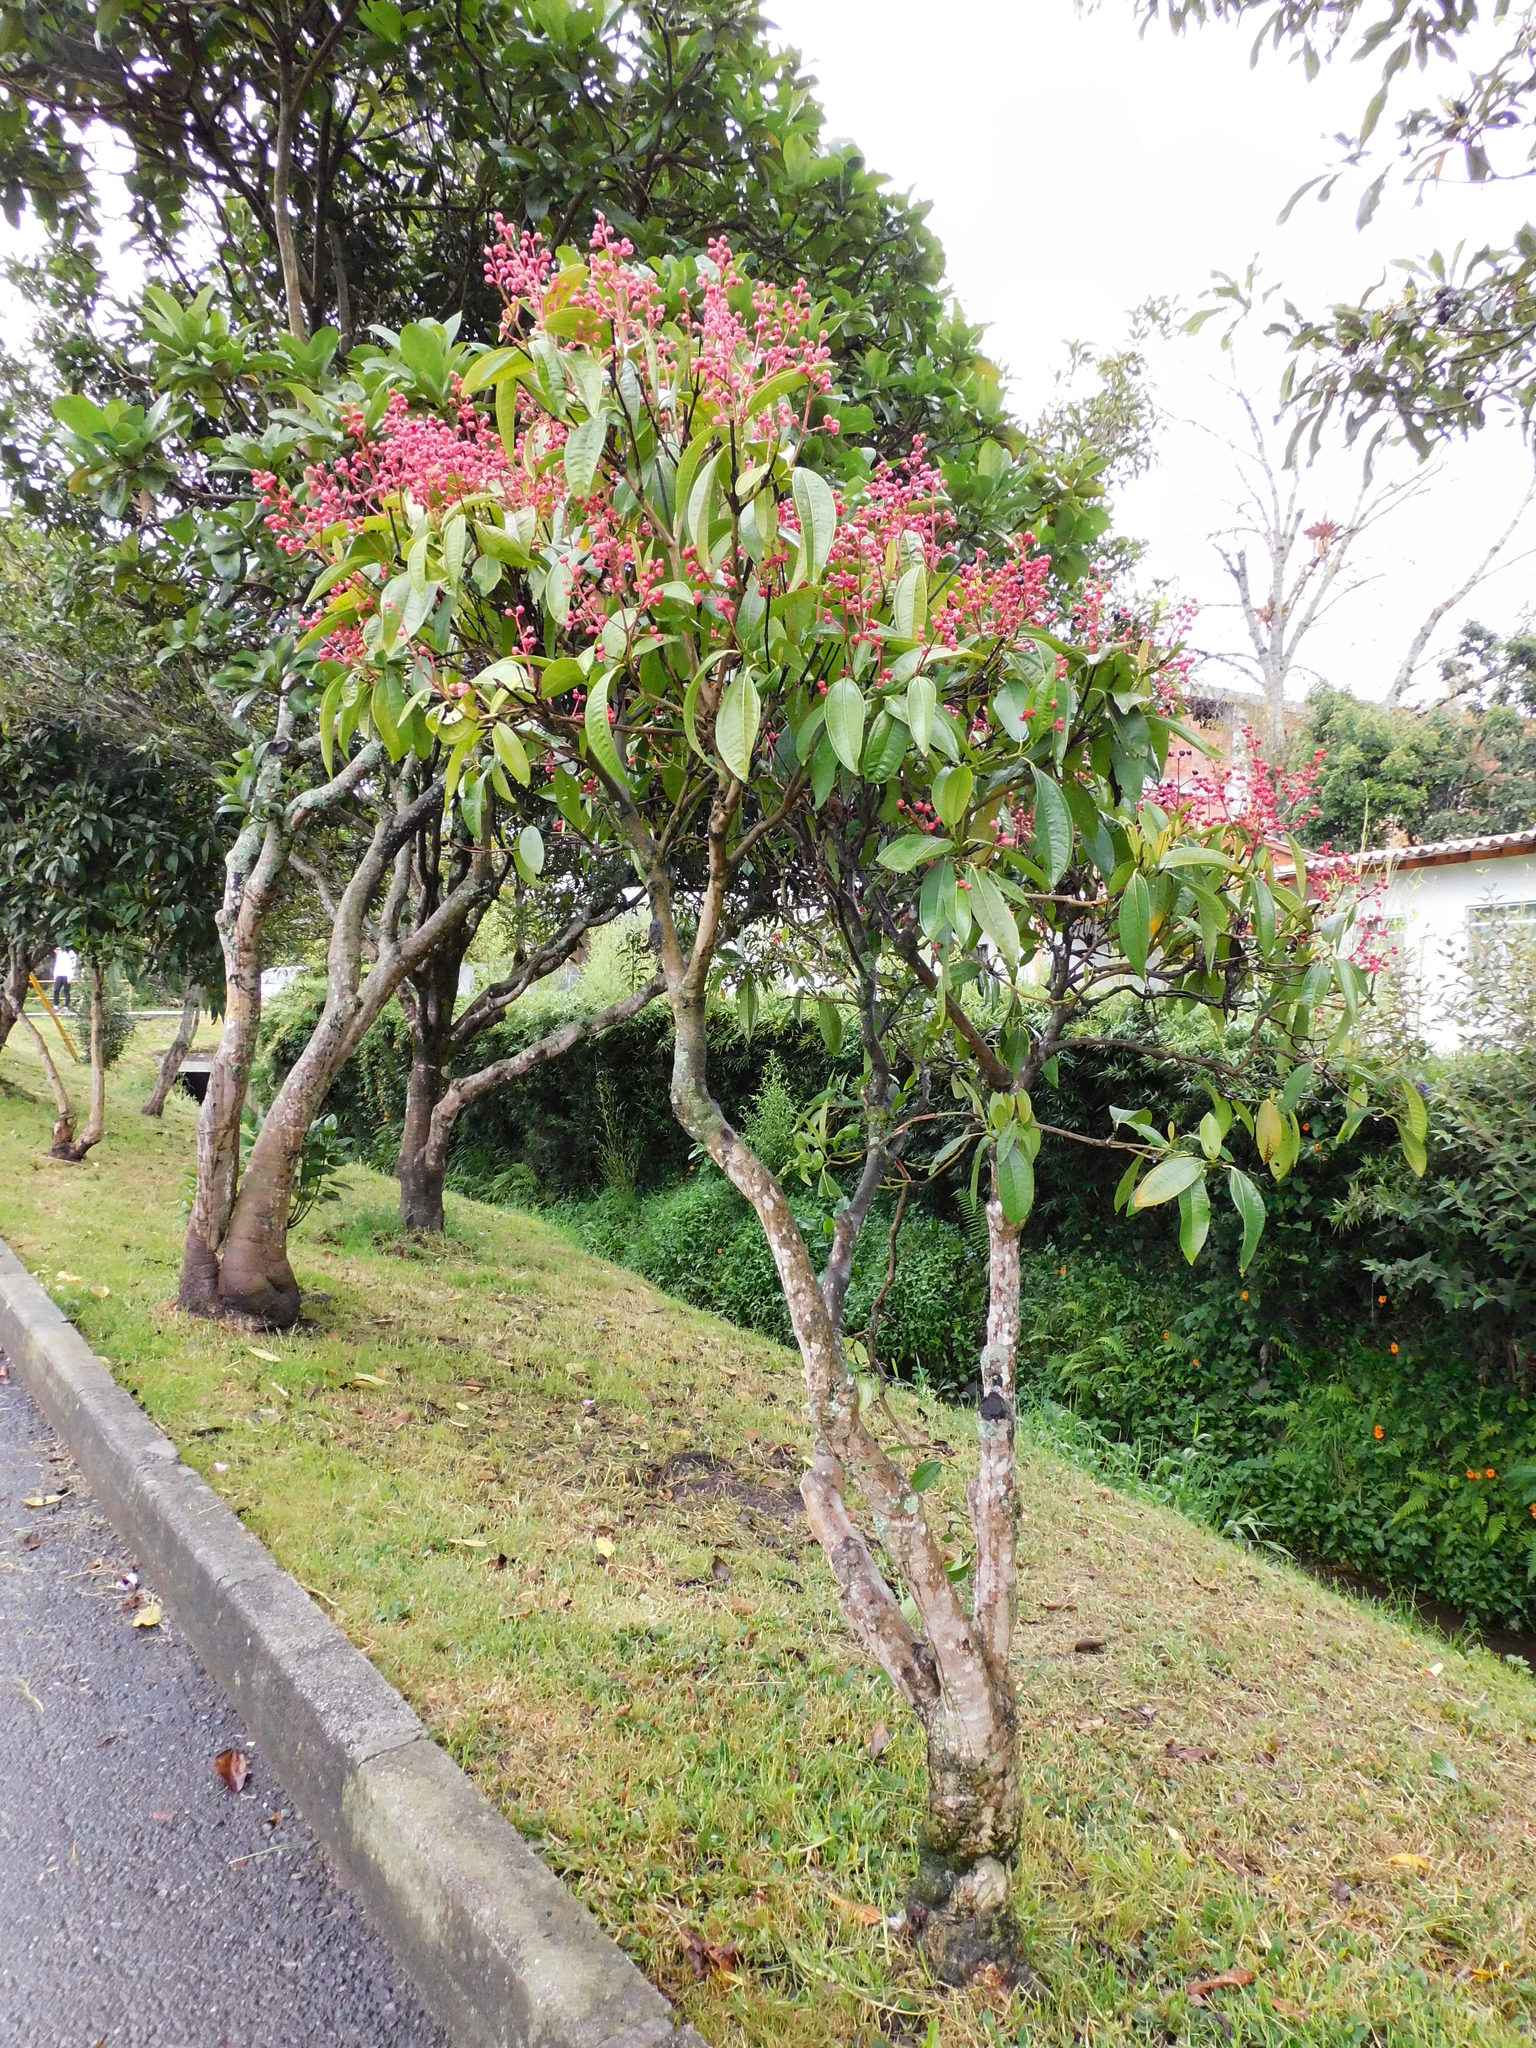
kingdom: Plantae
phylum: Tracheophyta
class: Magnoliopsida
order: Myrtales
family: Melastomataceae
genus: Miconia
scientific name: Miconia notabilis
